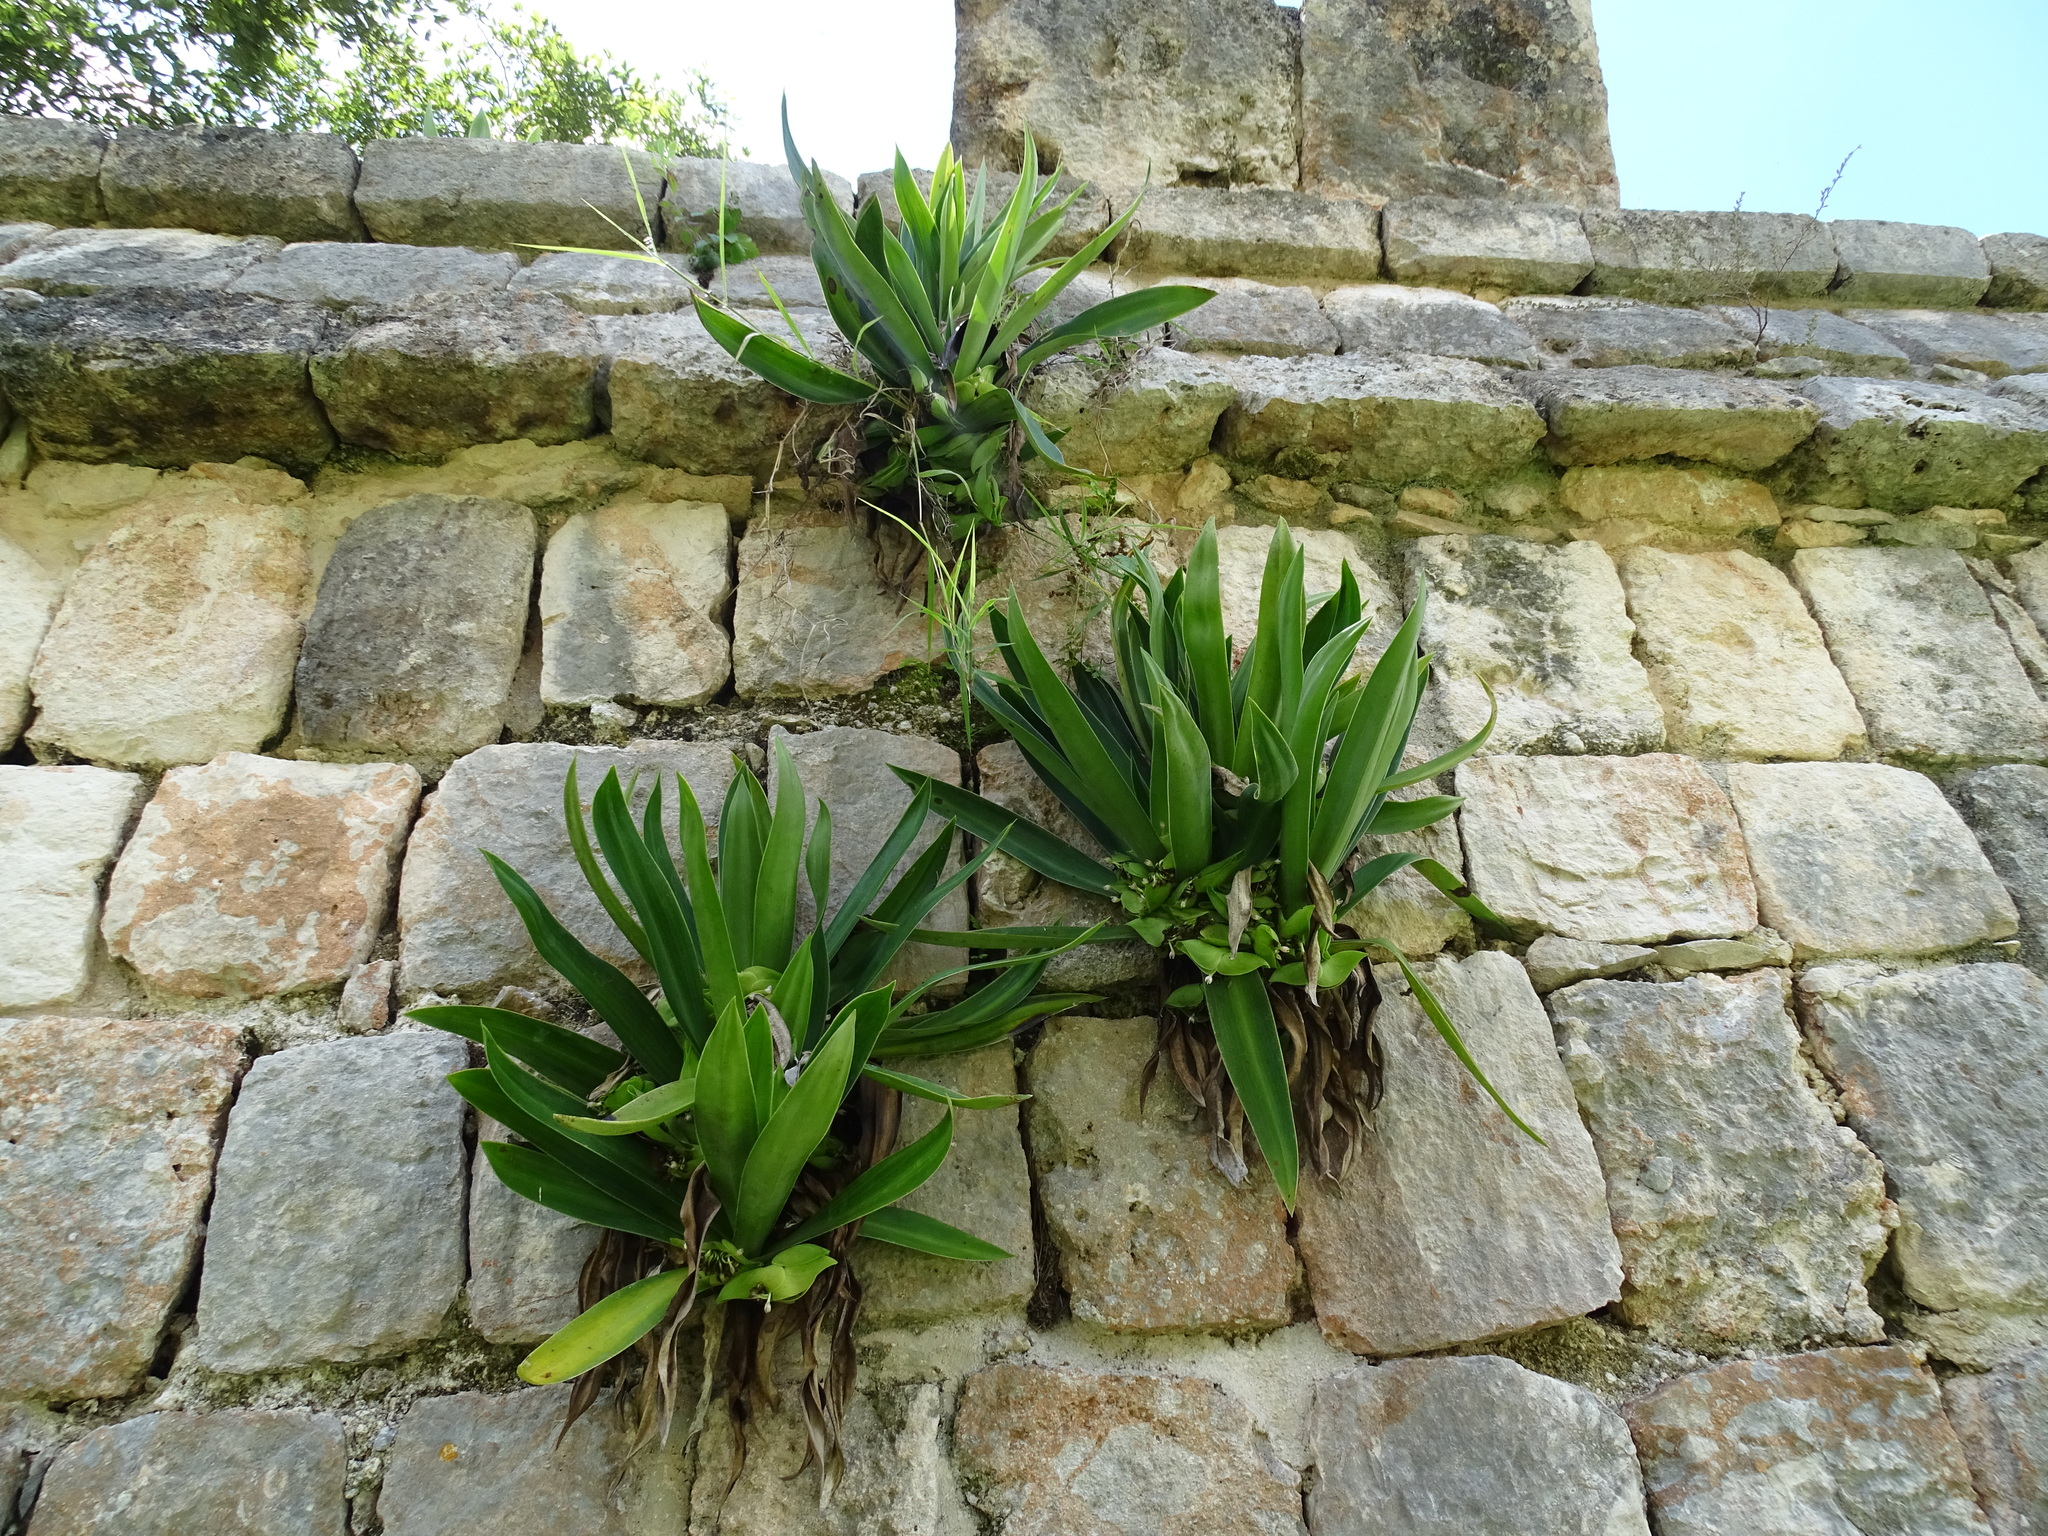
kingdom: Plantae
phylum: Tracheophyta
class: Liliopsida
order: Commelinales
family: Commelinaceae
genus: Tradescantia
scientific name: Tradescantia spathacea
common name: Boatlily
